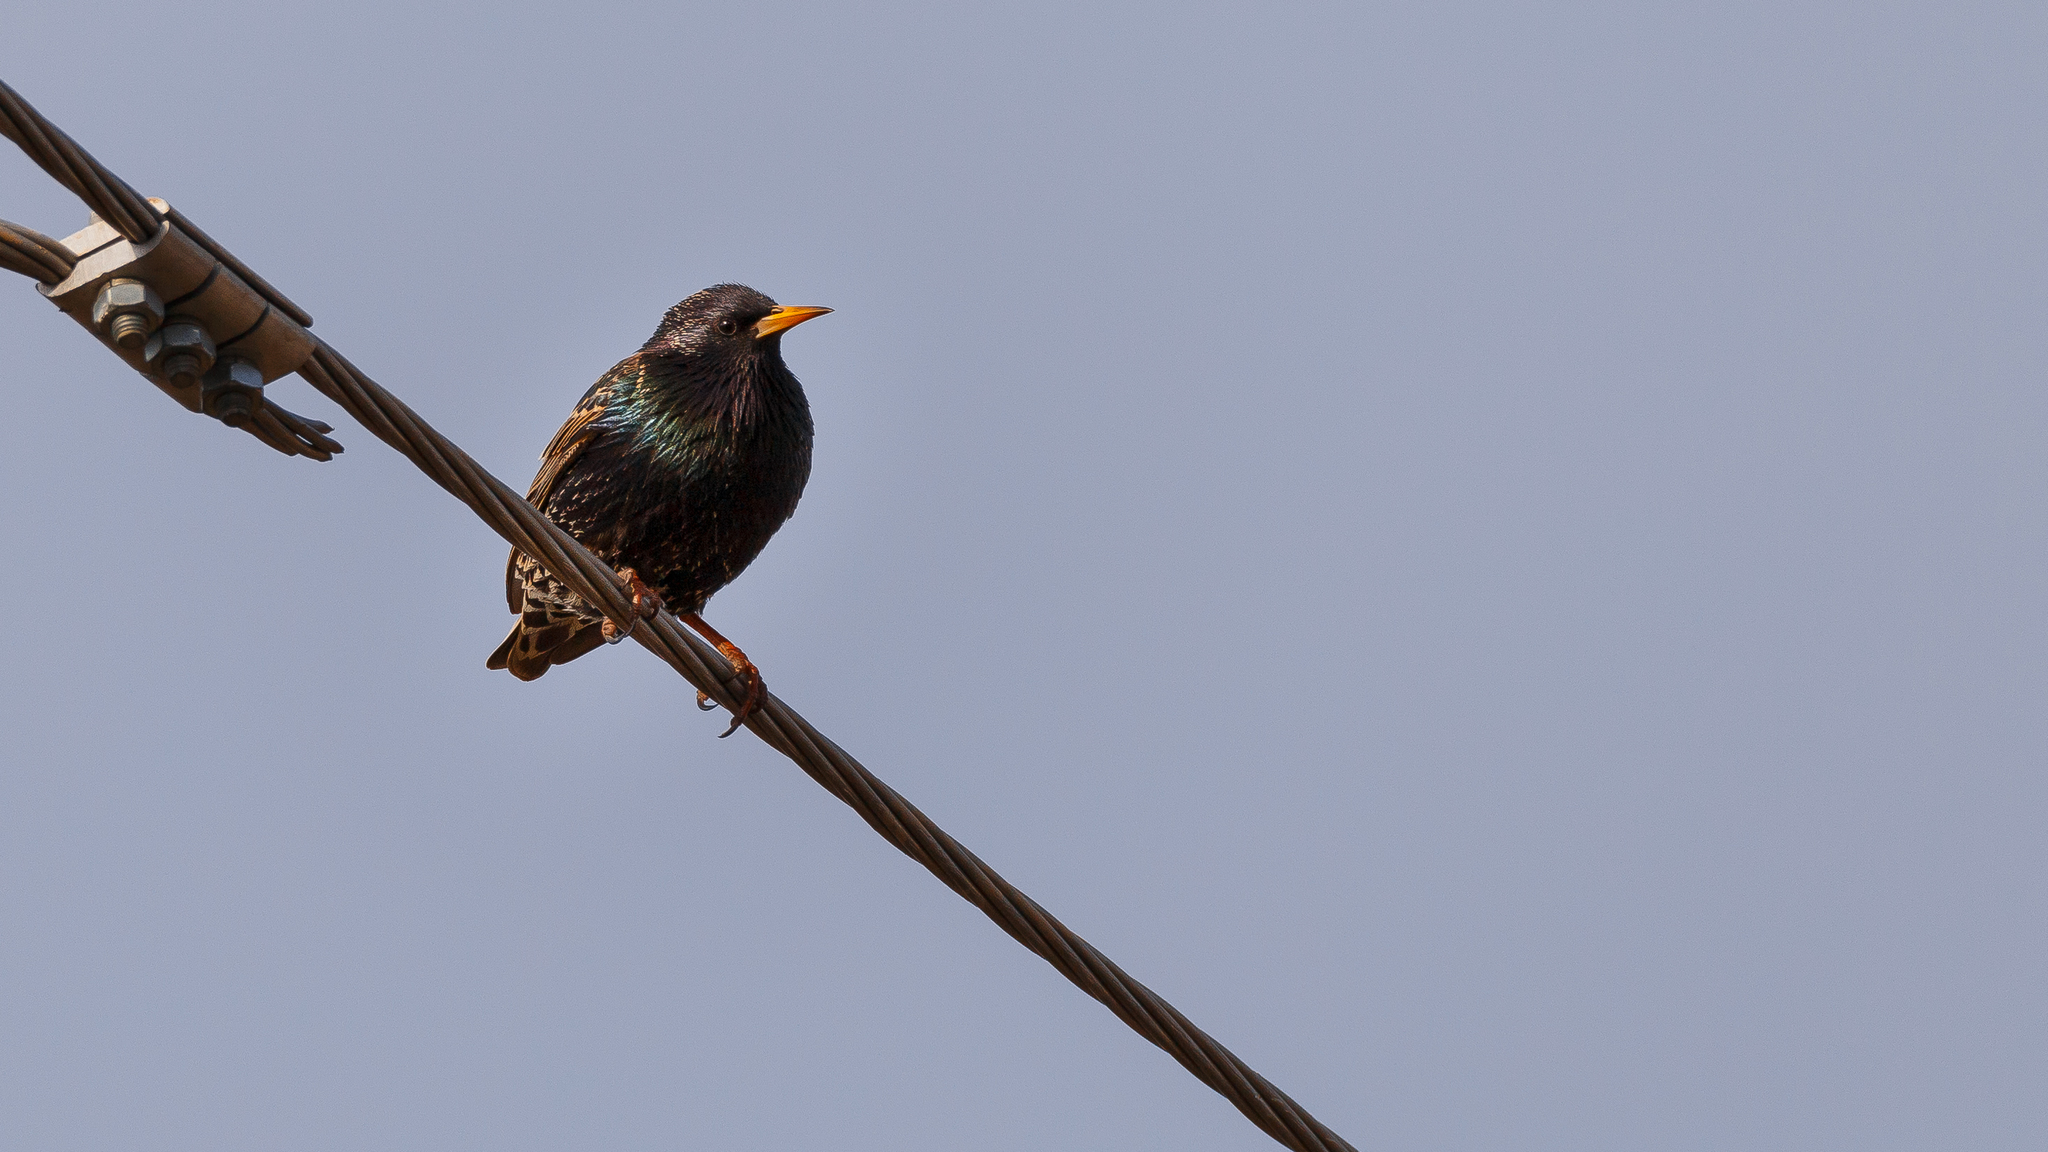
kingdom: Animalia
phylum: Chordata
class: Aves
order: Passeriformes
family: Sturnidae
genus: Sturnus
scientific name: Sturnus vulgaris
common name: Common starling
